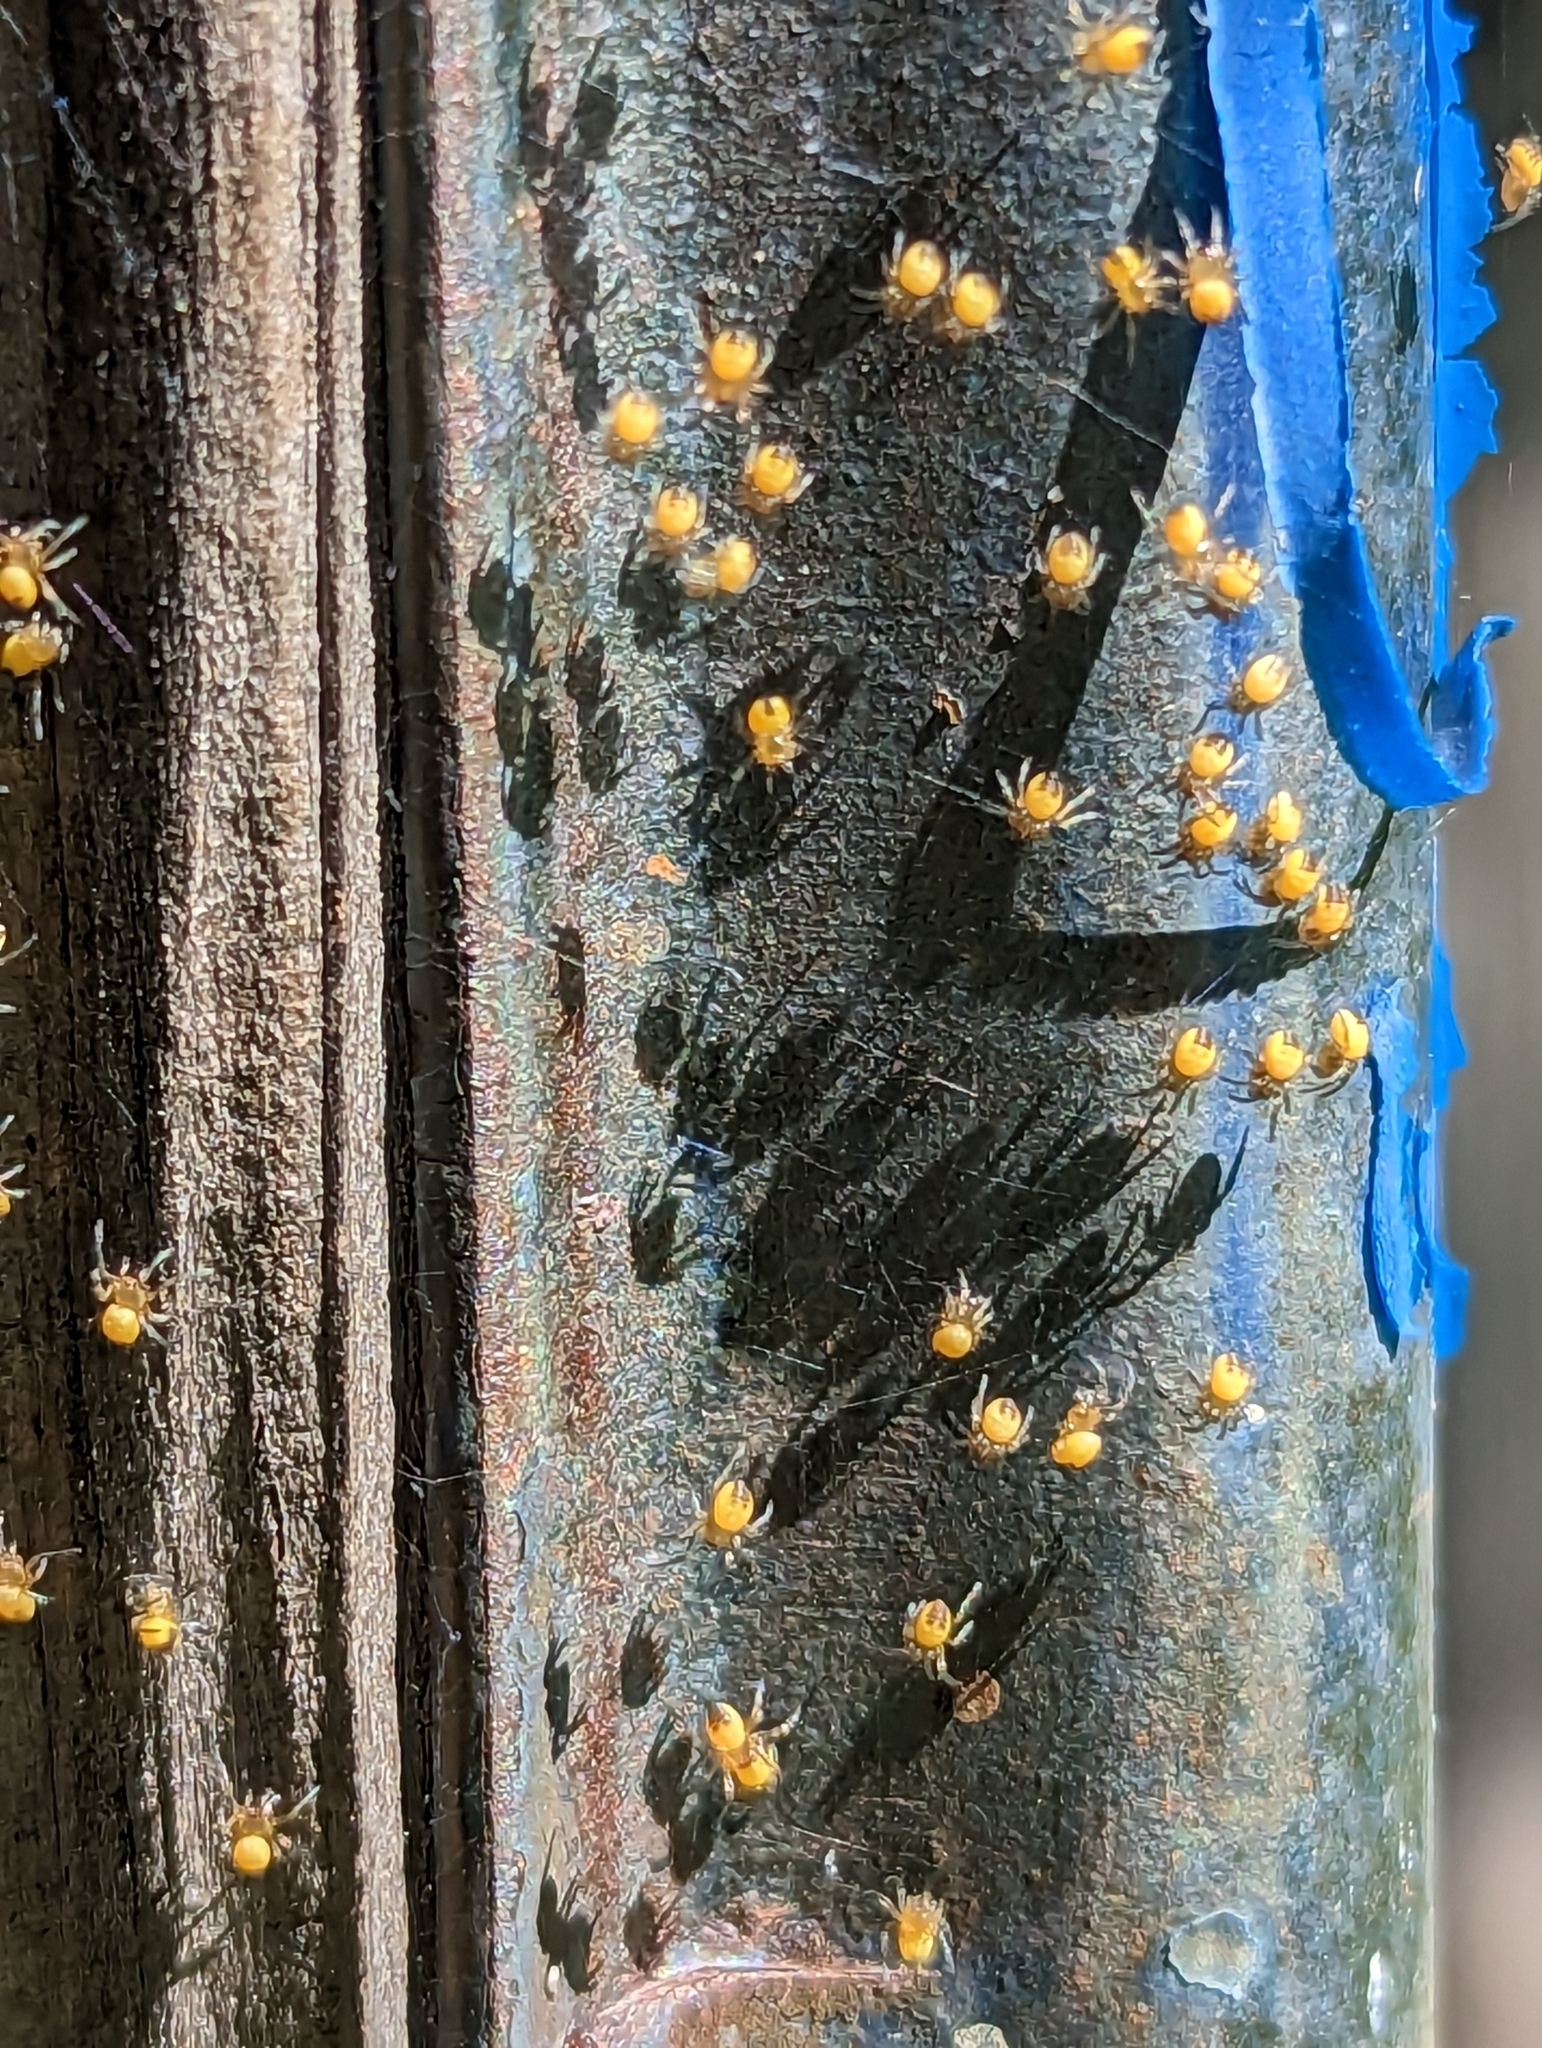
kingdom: Animalia
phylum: Arthropoda
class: Arachnida
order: Araneae
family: Araneidae
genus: Araneus
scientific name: Araneus
